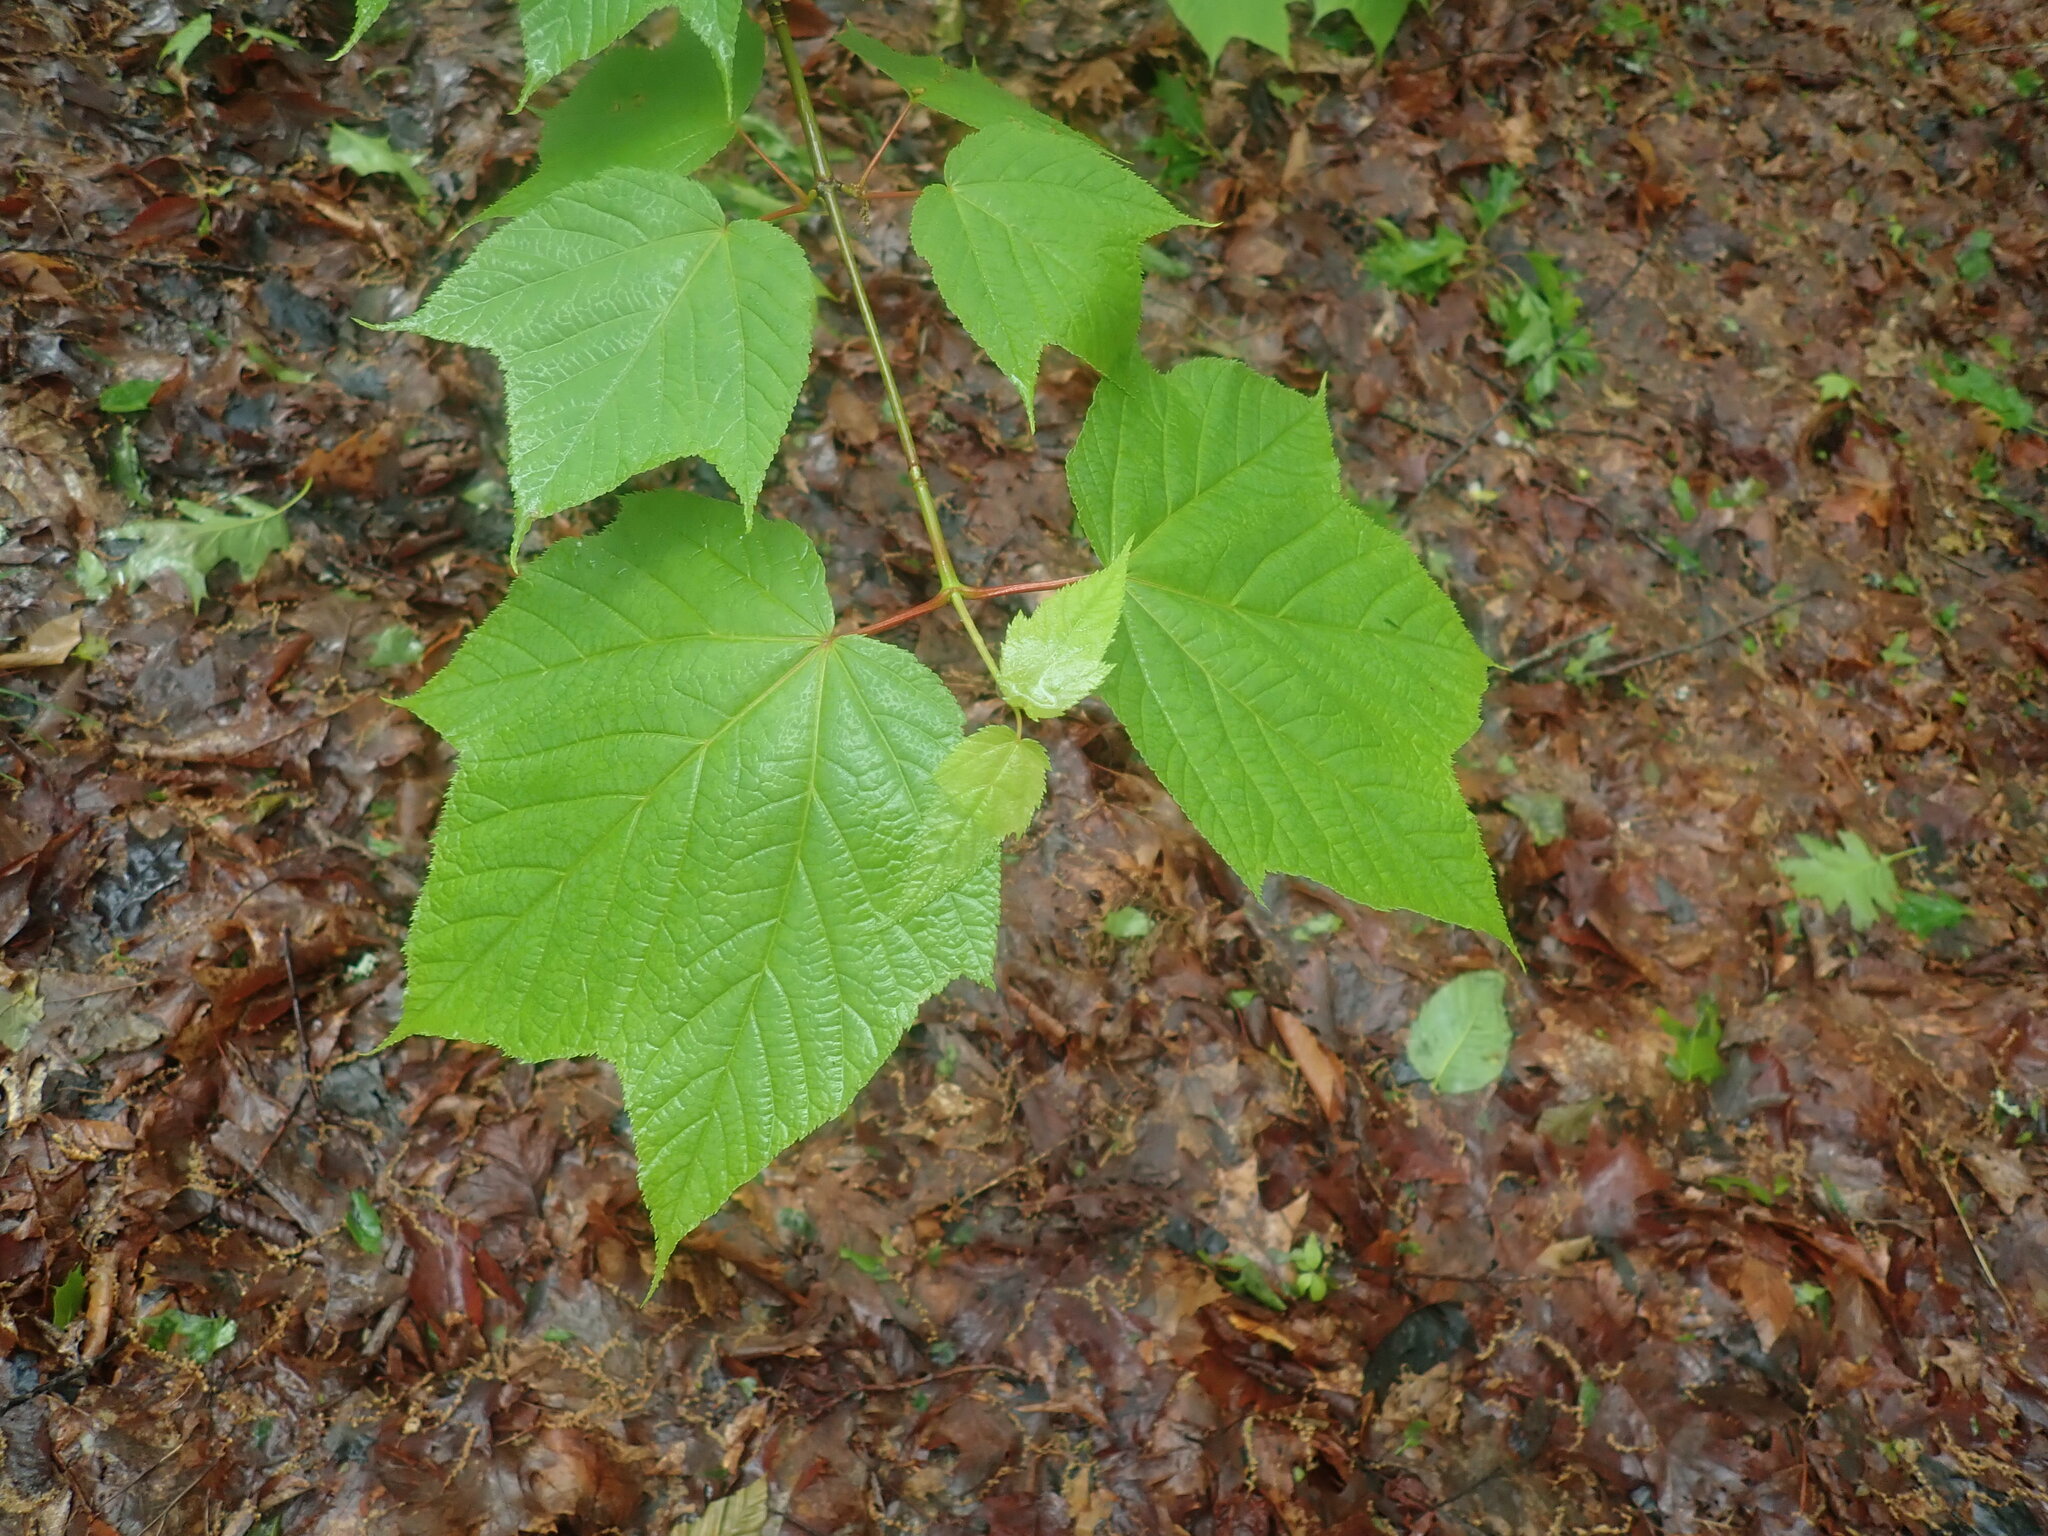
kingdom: Plantae
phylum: Tracheophyta
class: Magnoliopsida
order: Sapindales
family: Sapindaceae
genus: Acer
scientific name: Acer pensylvanicum
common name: Moosewood
